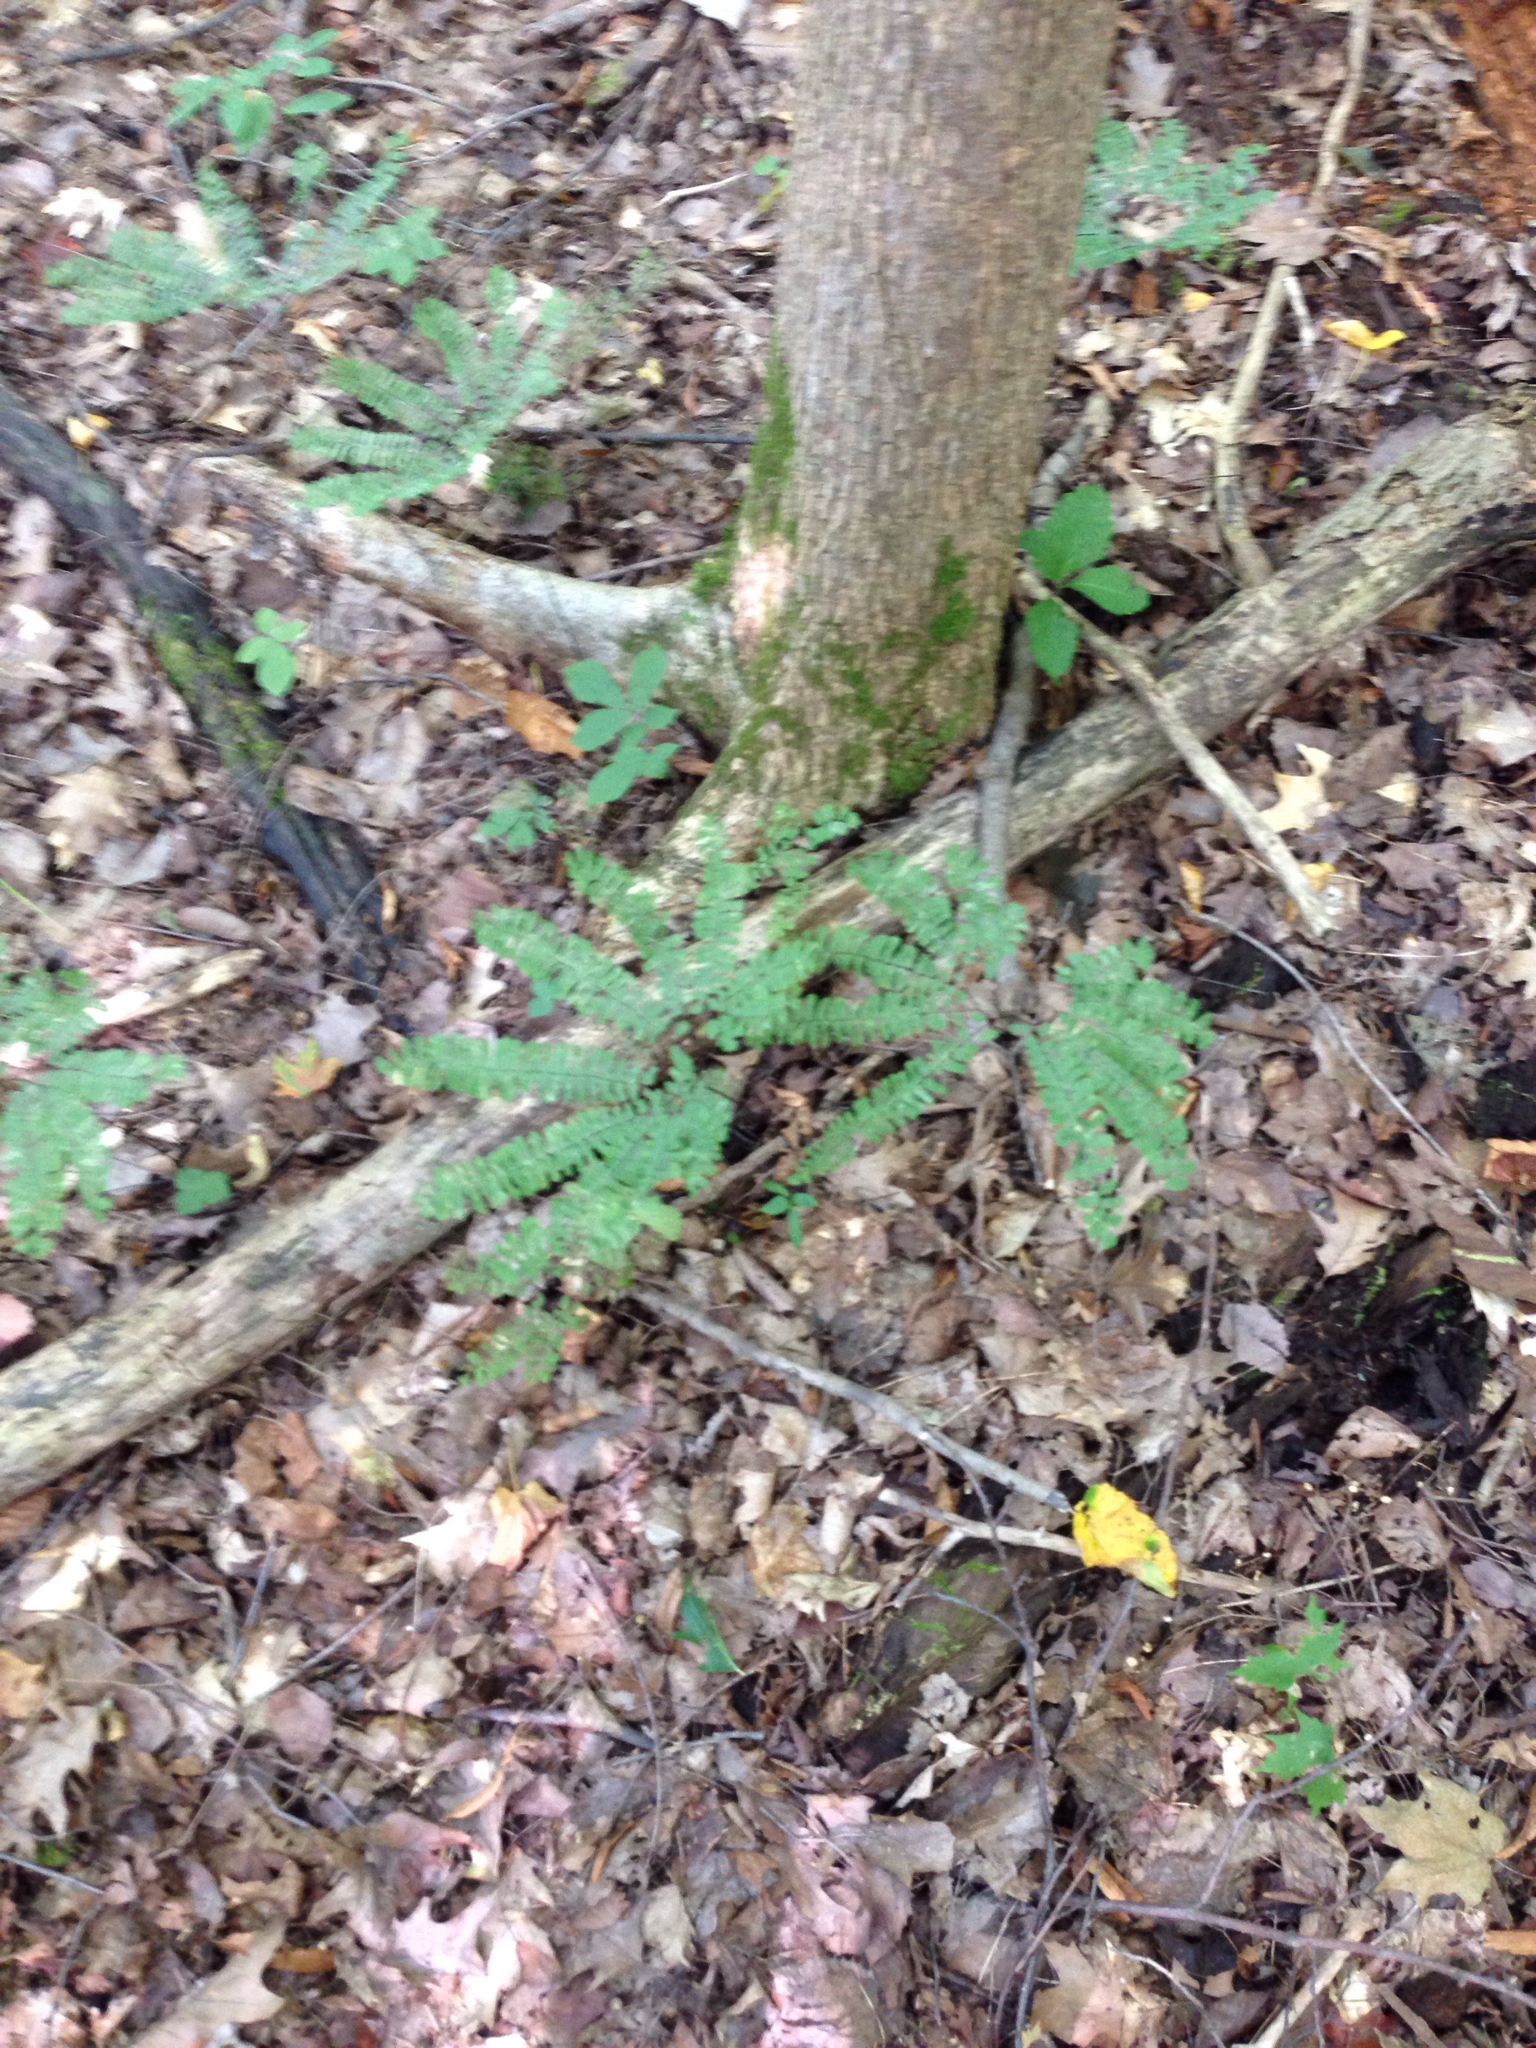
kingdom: Plantae
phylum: Tracheophyta
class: Polypodiopsida
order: Polypodiales
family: Pteridaceae
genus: Adiantum
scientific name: Adiantum pedatum
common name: Five-finger fern
